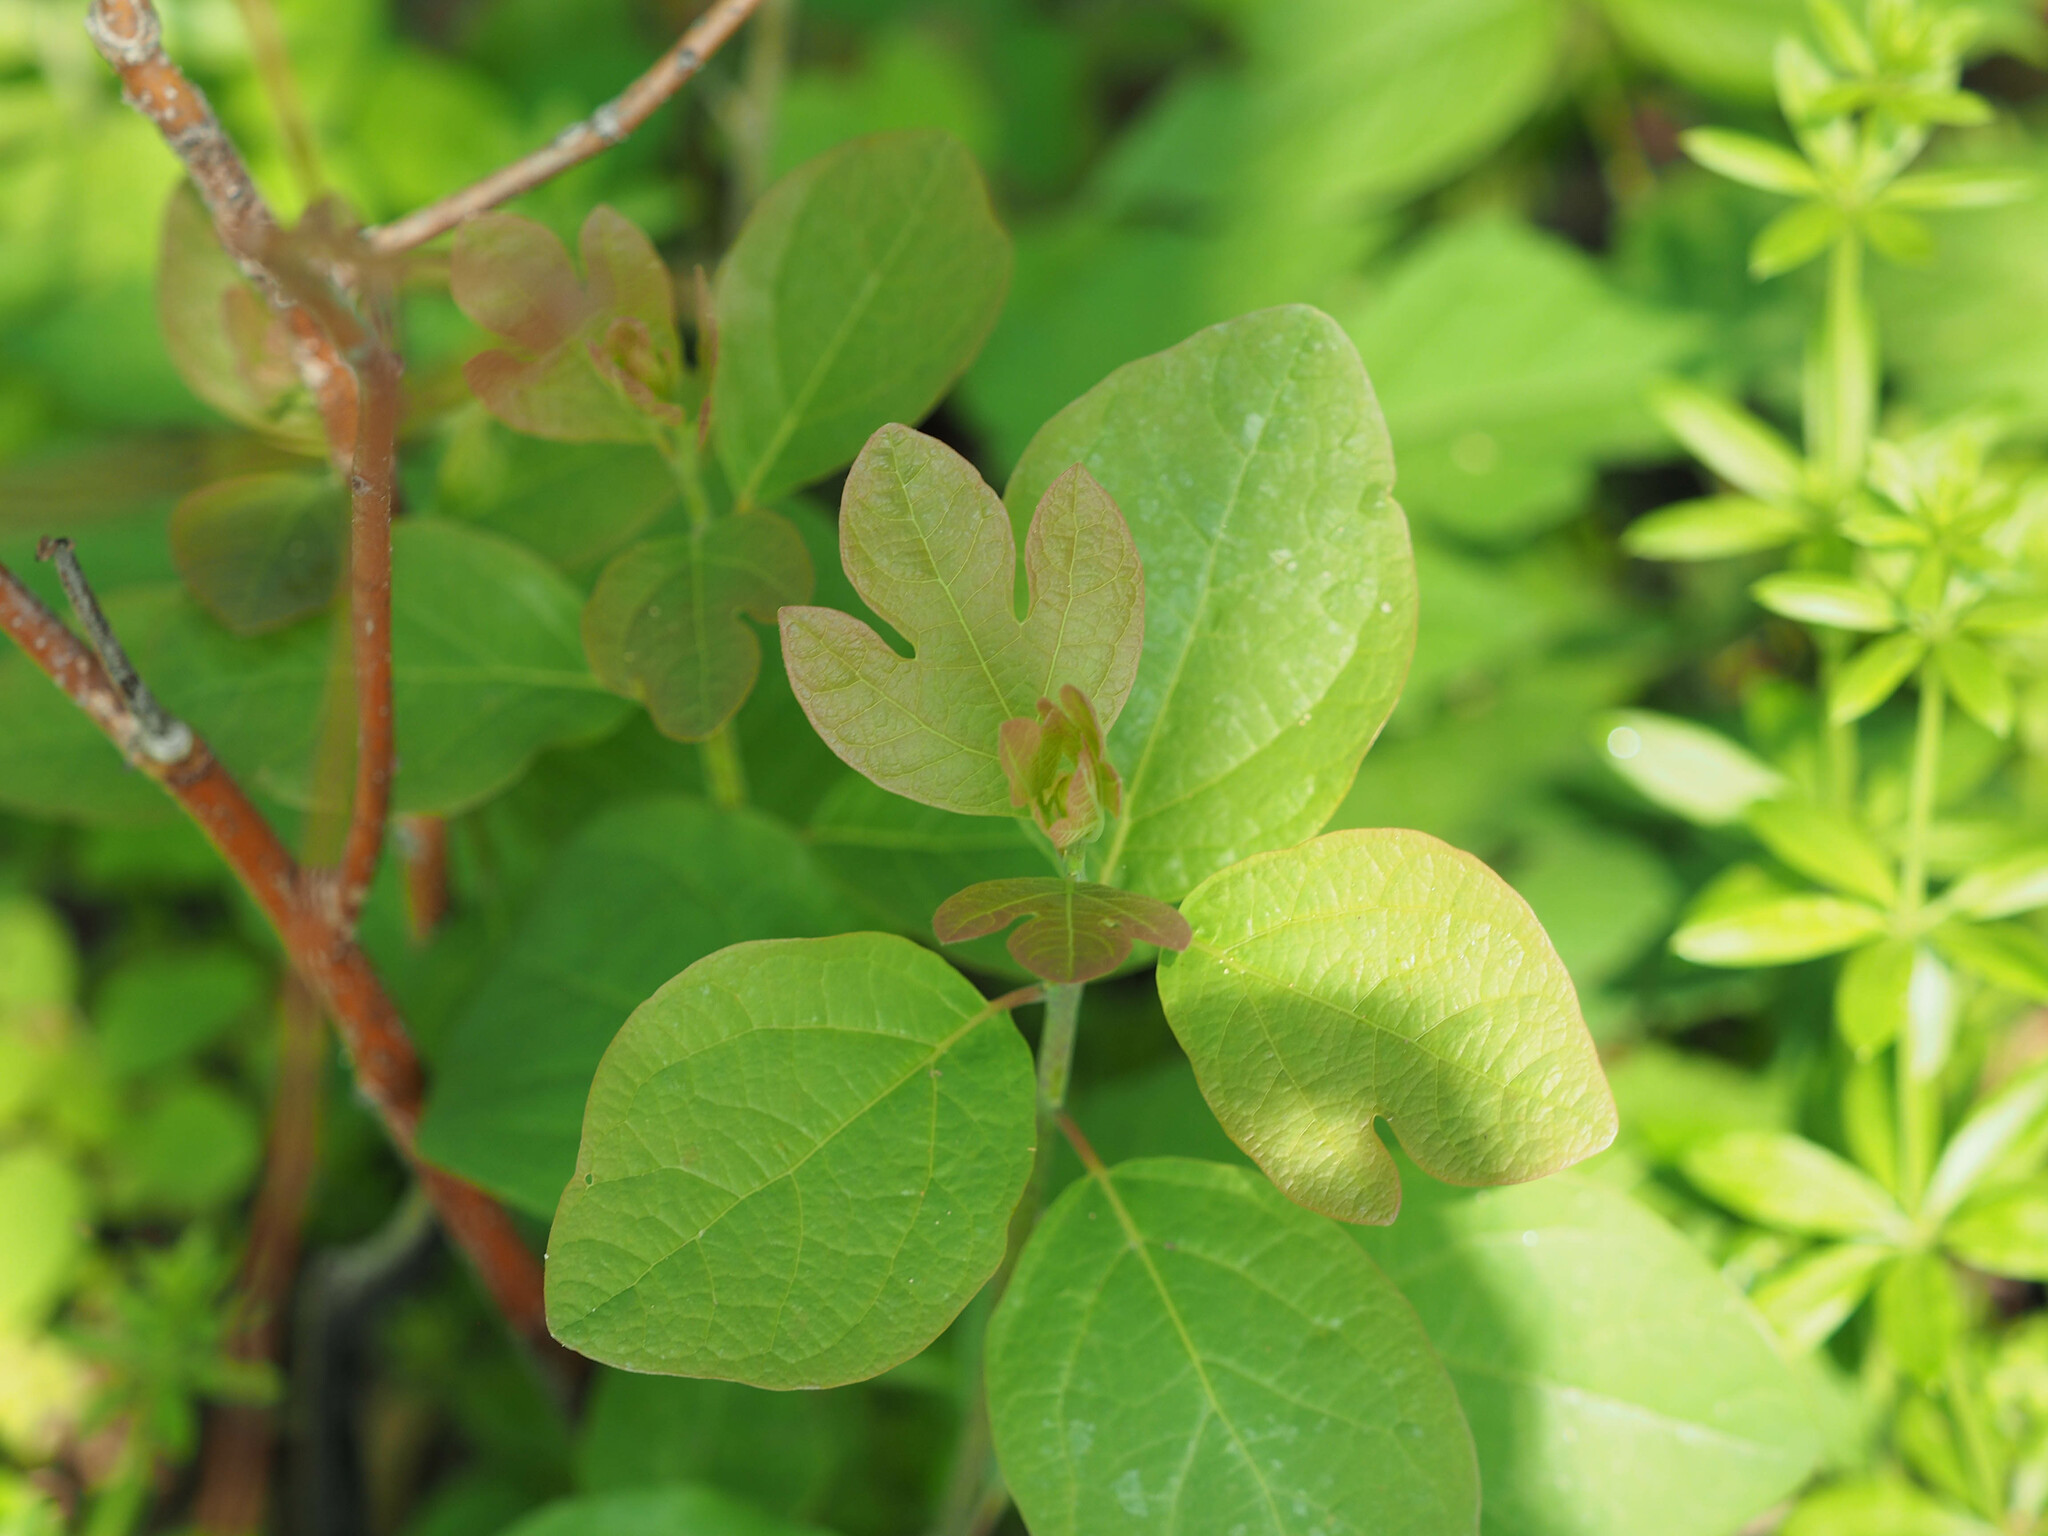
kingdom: Plantae
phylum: Tracheophyta
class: Magnoliopsida
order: Laurales
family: Lauraceae
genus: Sassafras
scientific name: Sassafras albidum
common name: Sassafras
